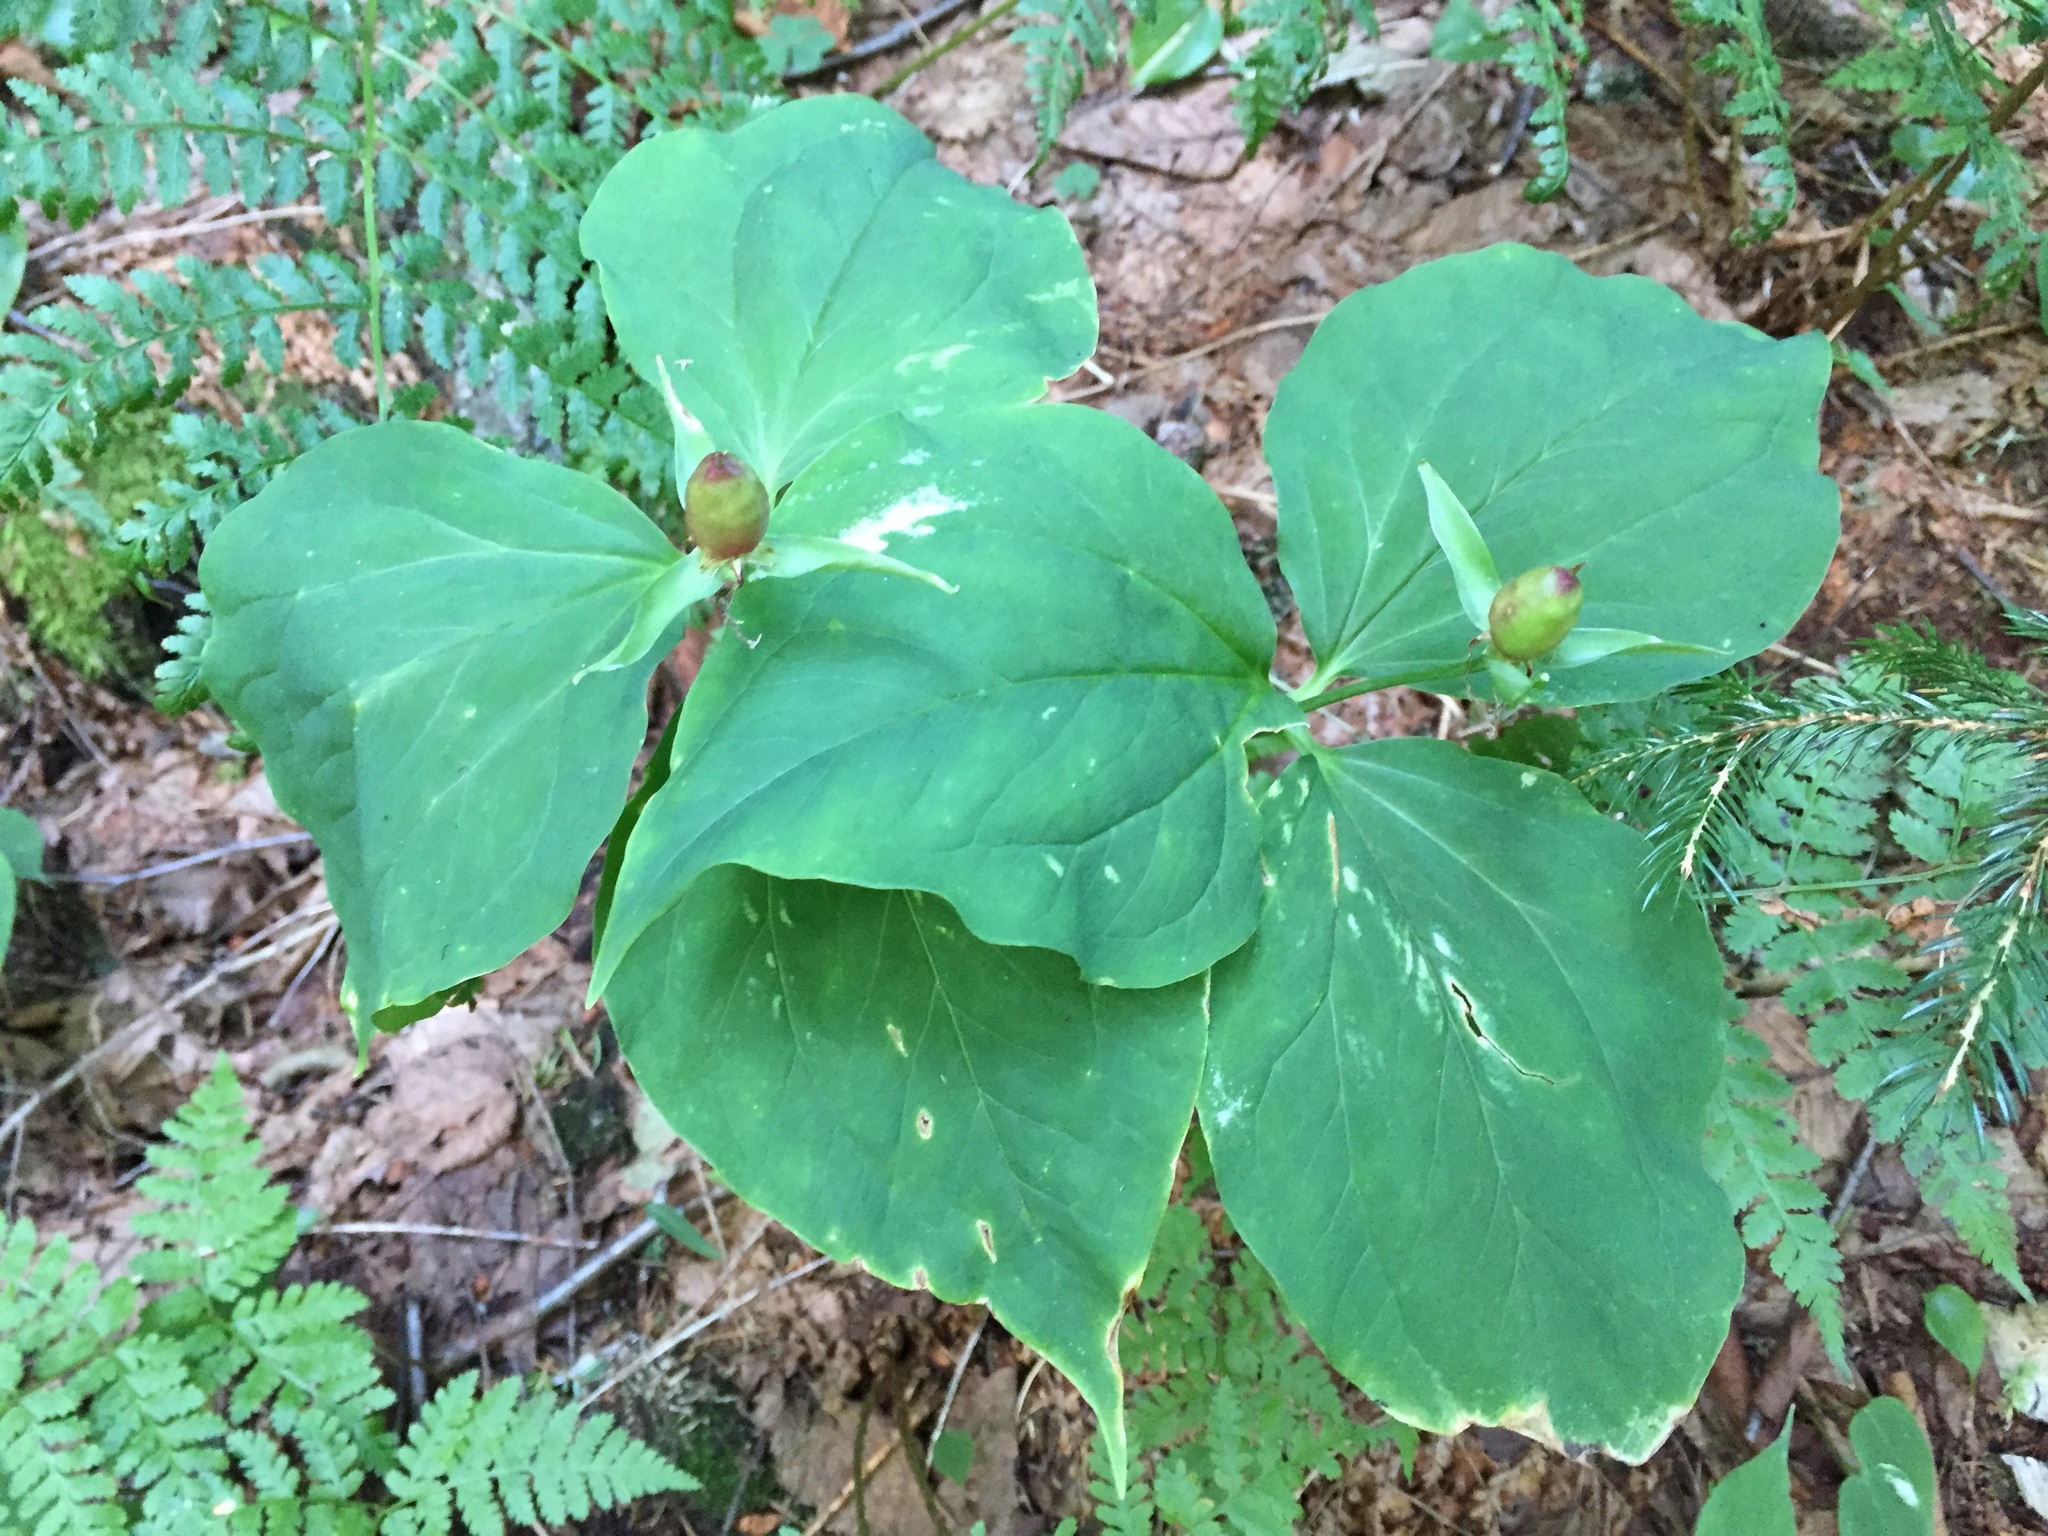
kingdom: Plantae
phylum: Tracheophyta
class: Liliopsida
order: Liliales
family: Melanthiaceae
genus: Trillium
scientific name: Trillium undulatum
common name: Paint trillium
